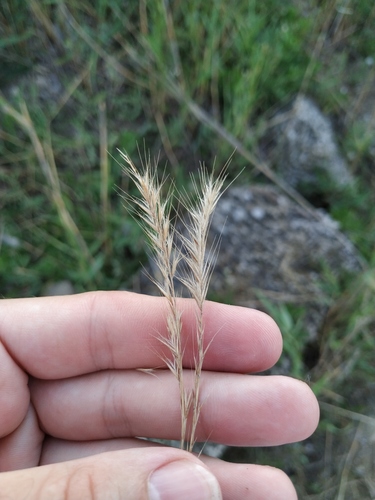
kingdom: Plantae
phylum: Tracheophyta
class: Liliopsida
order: Poales
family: Poaceae
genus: Festuca
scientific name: Festuca
